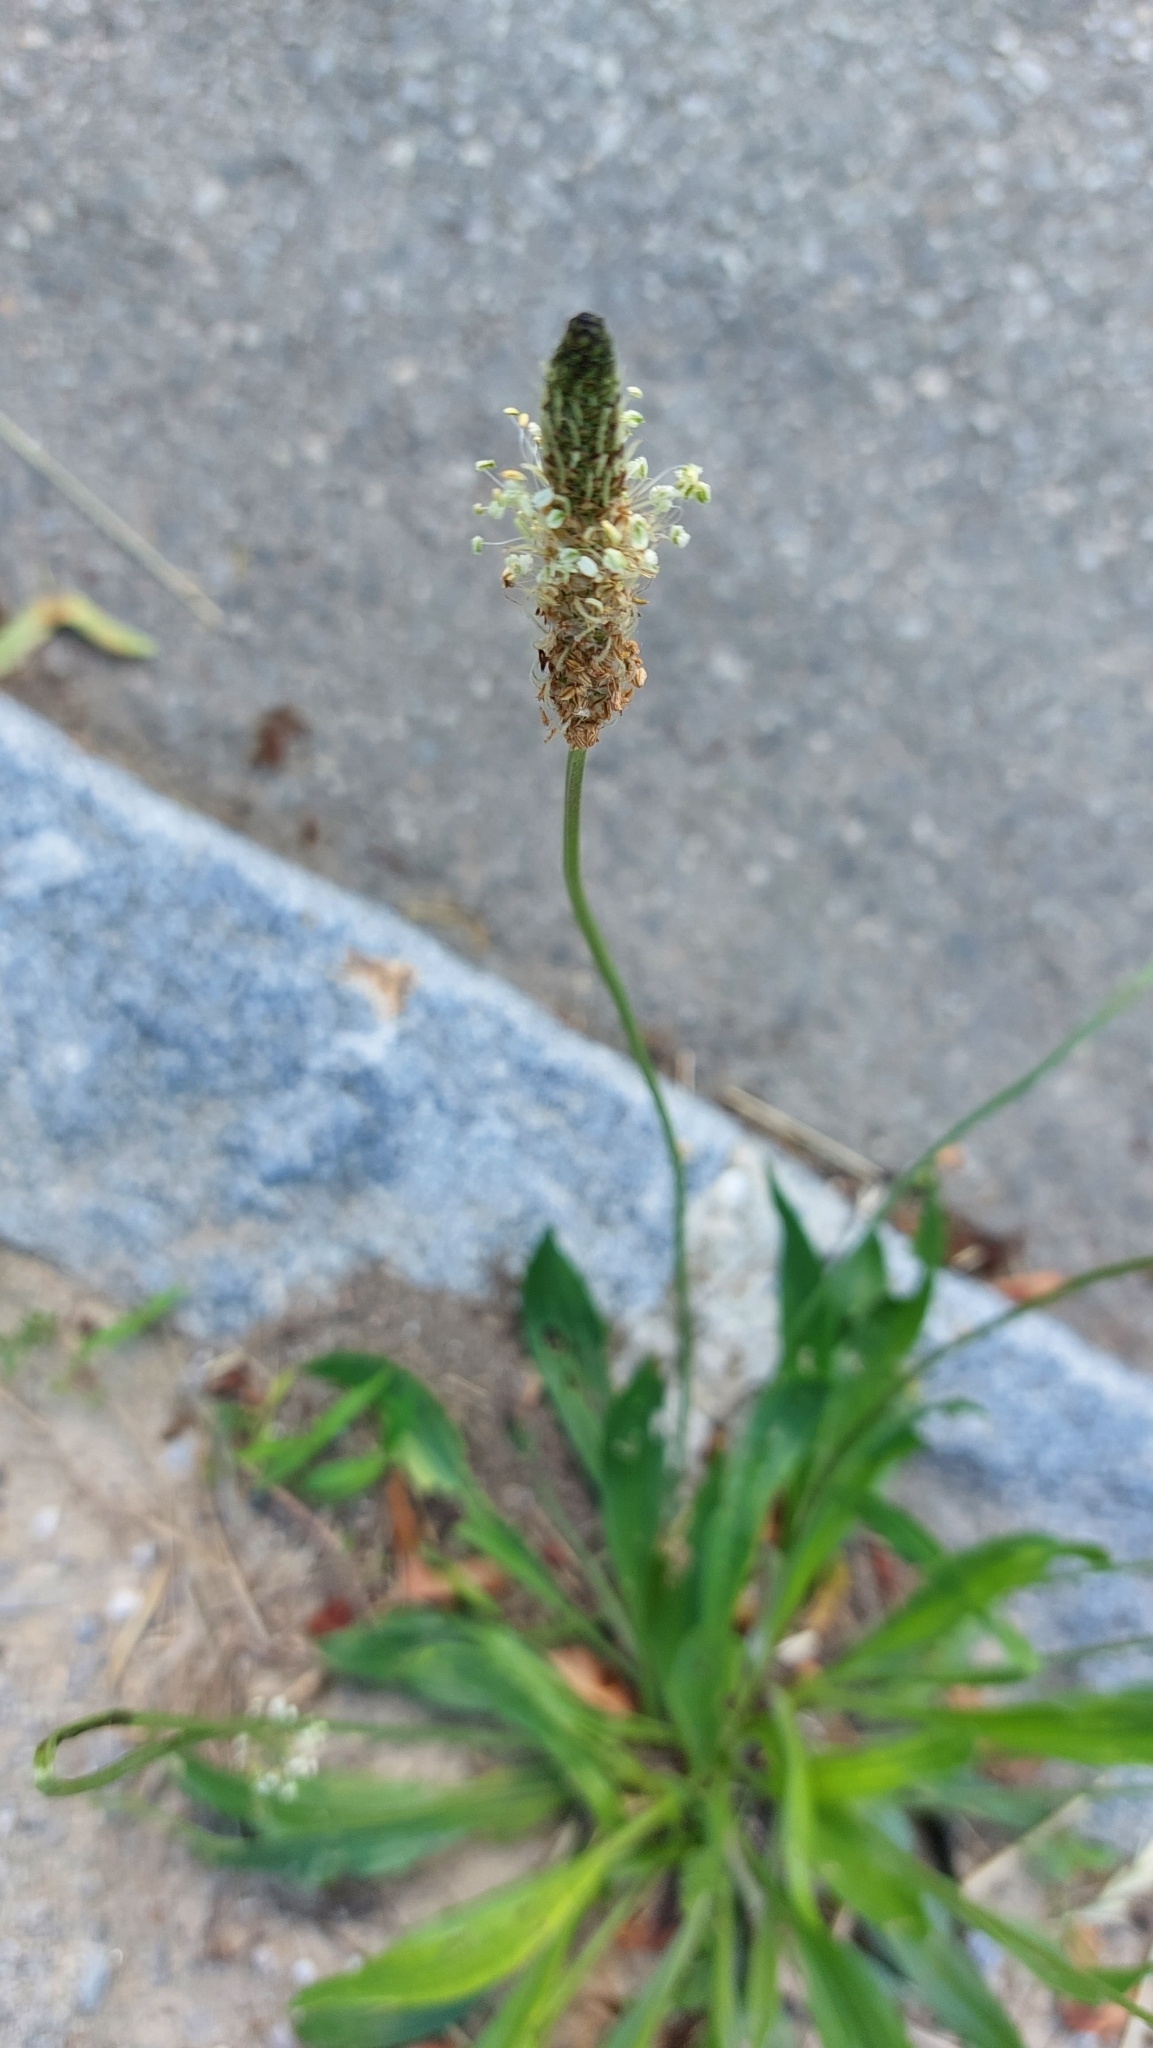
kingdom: Plantae
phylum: Tracheophyta
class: Magnoliopsida
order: Lamiales
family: Plantaginaceae
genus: Plantago
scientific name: Plantago lanceolata
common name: Ribwort plantain
